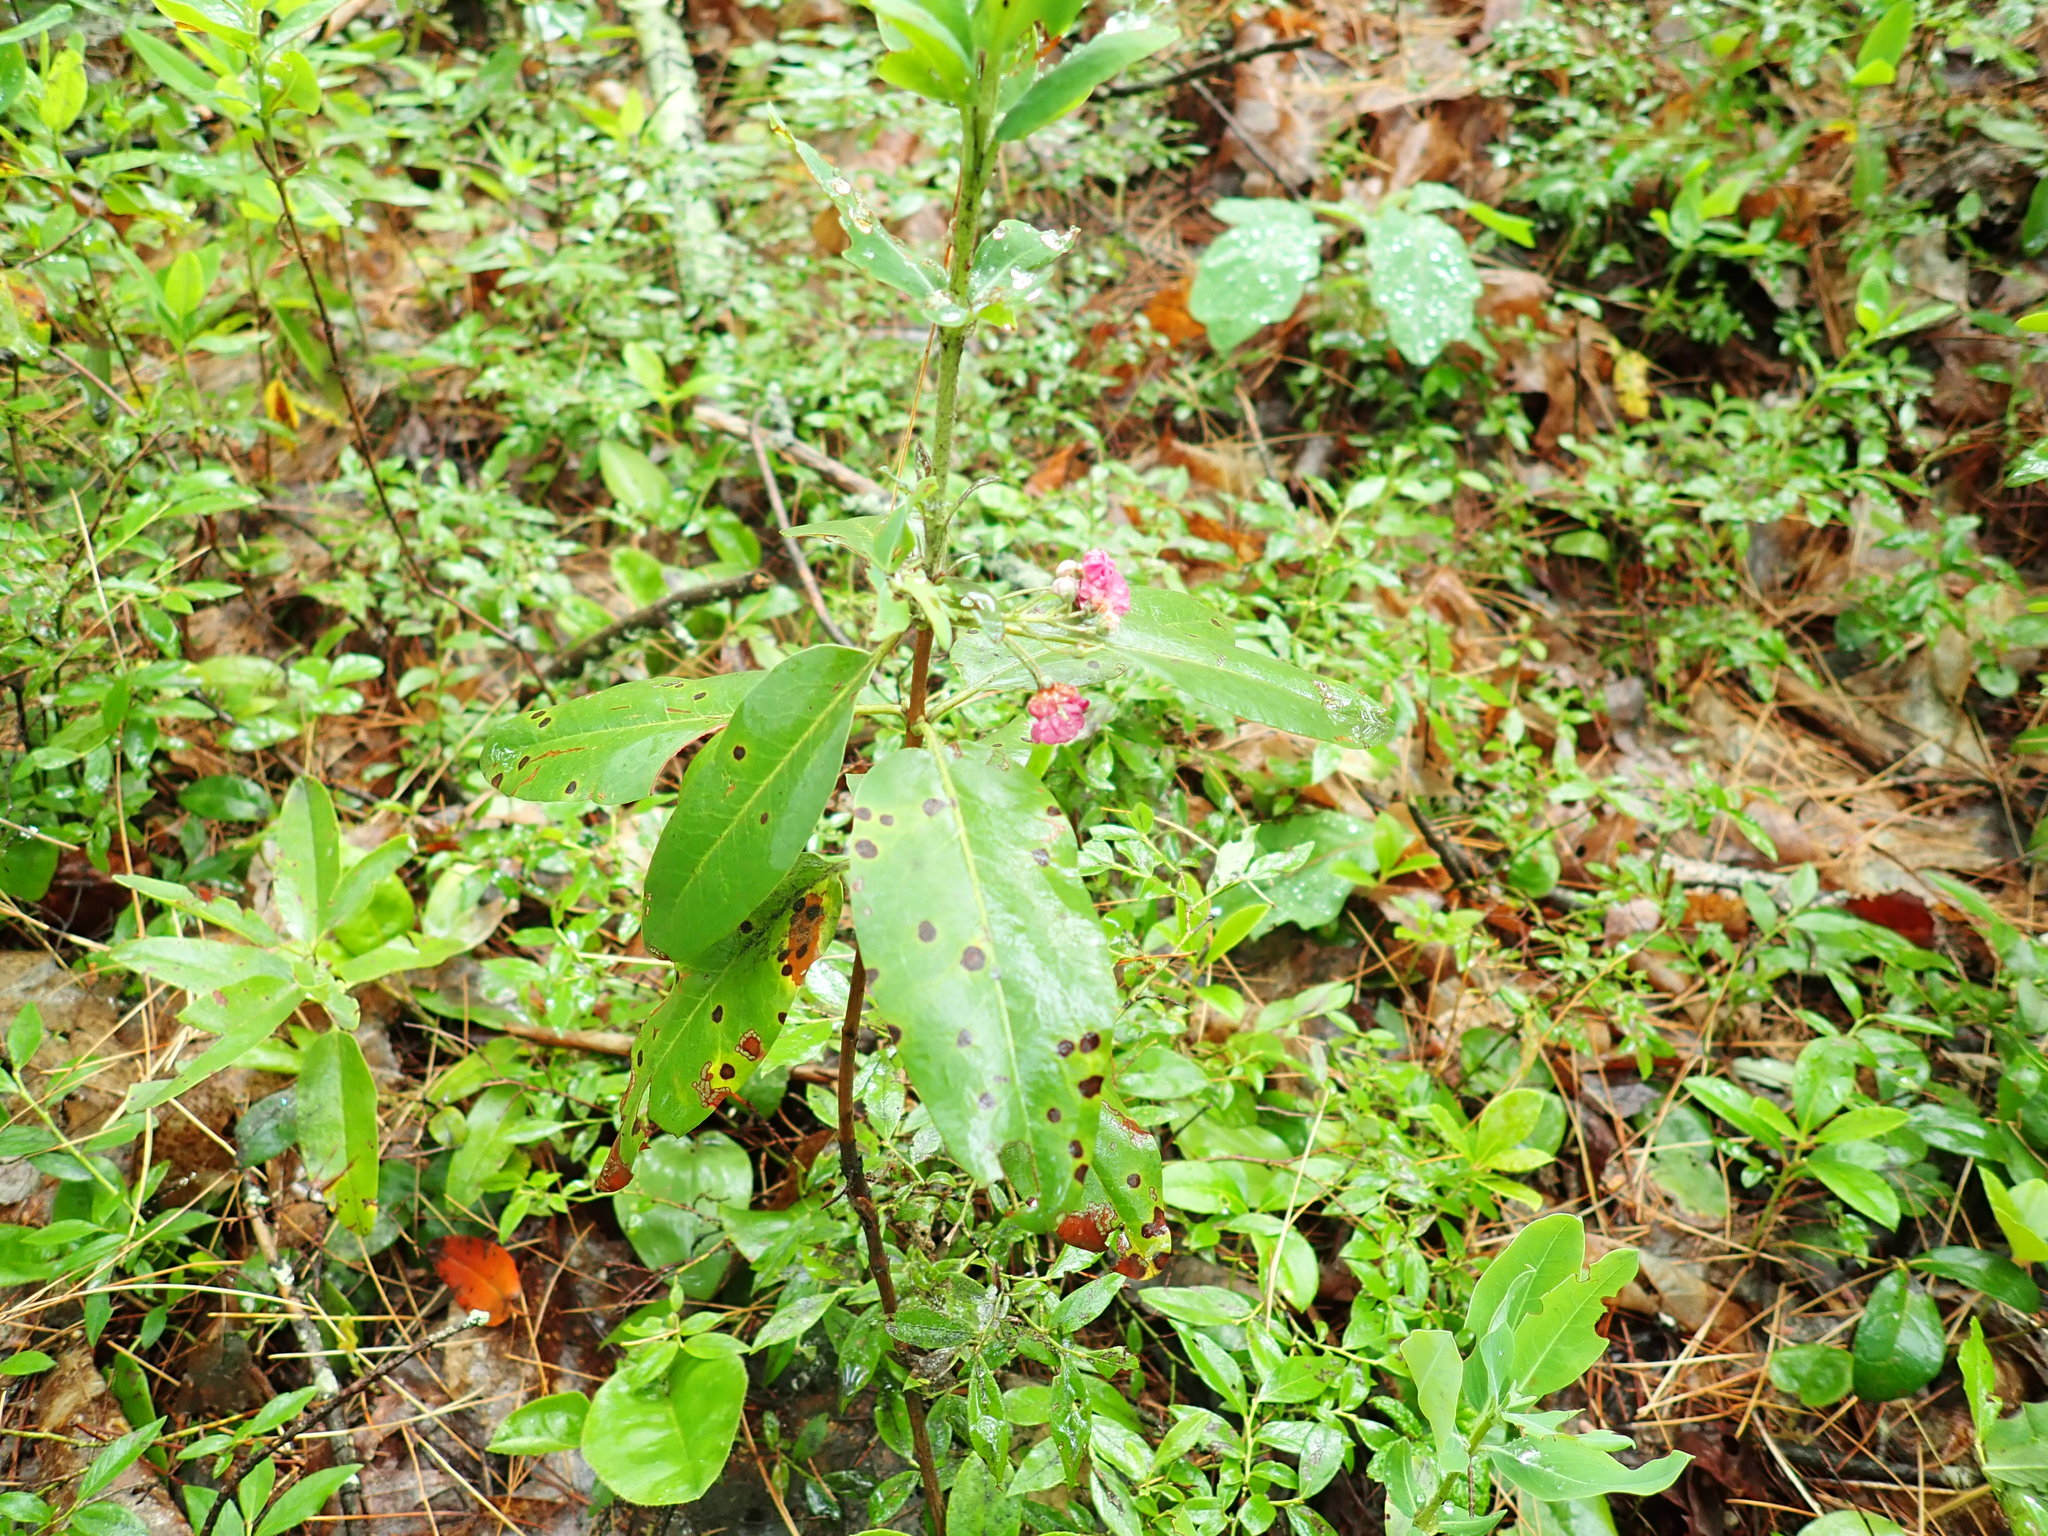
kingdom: Plantae
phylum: Tracheophyta
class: Magnoliopsida
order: Ericales
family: Ericaceae
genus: Kalmia
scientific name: Kalmia angustifolia
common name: Sheep-laurel
